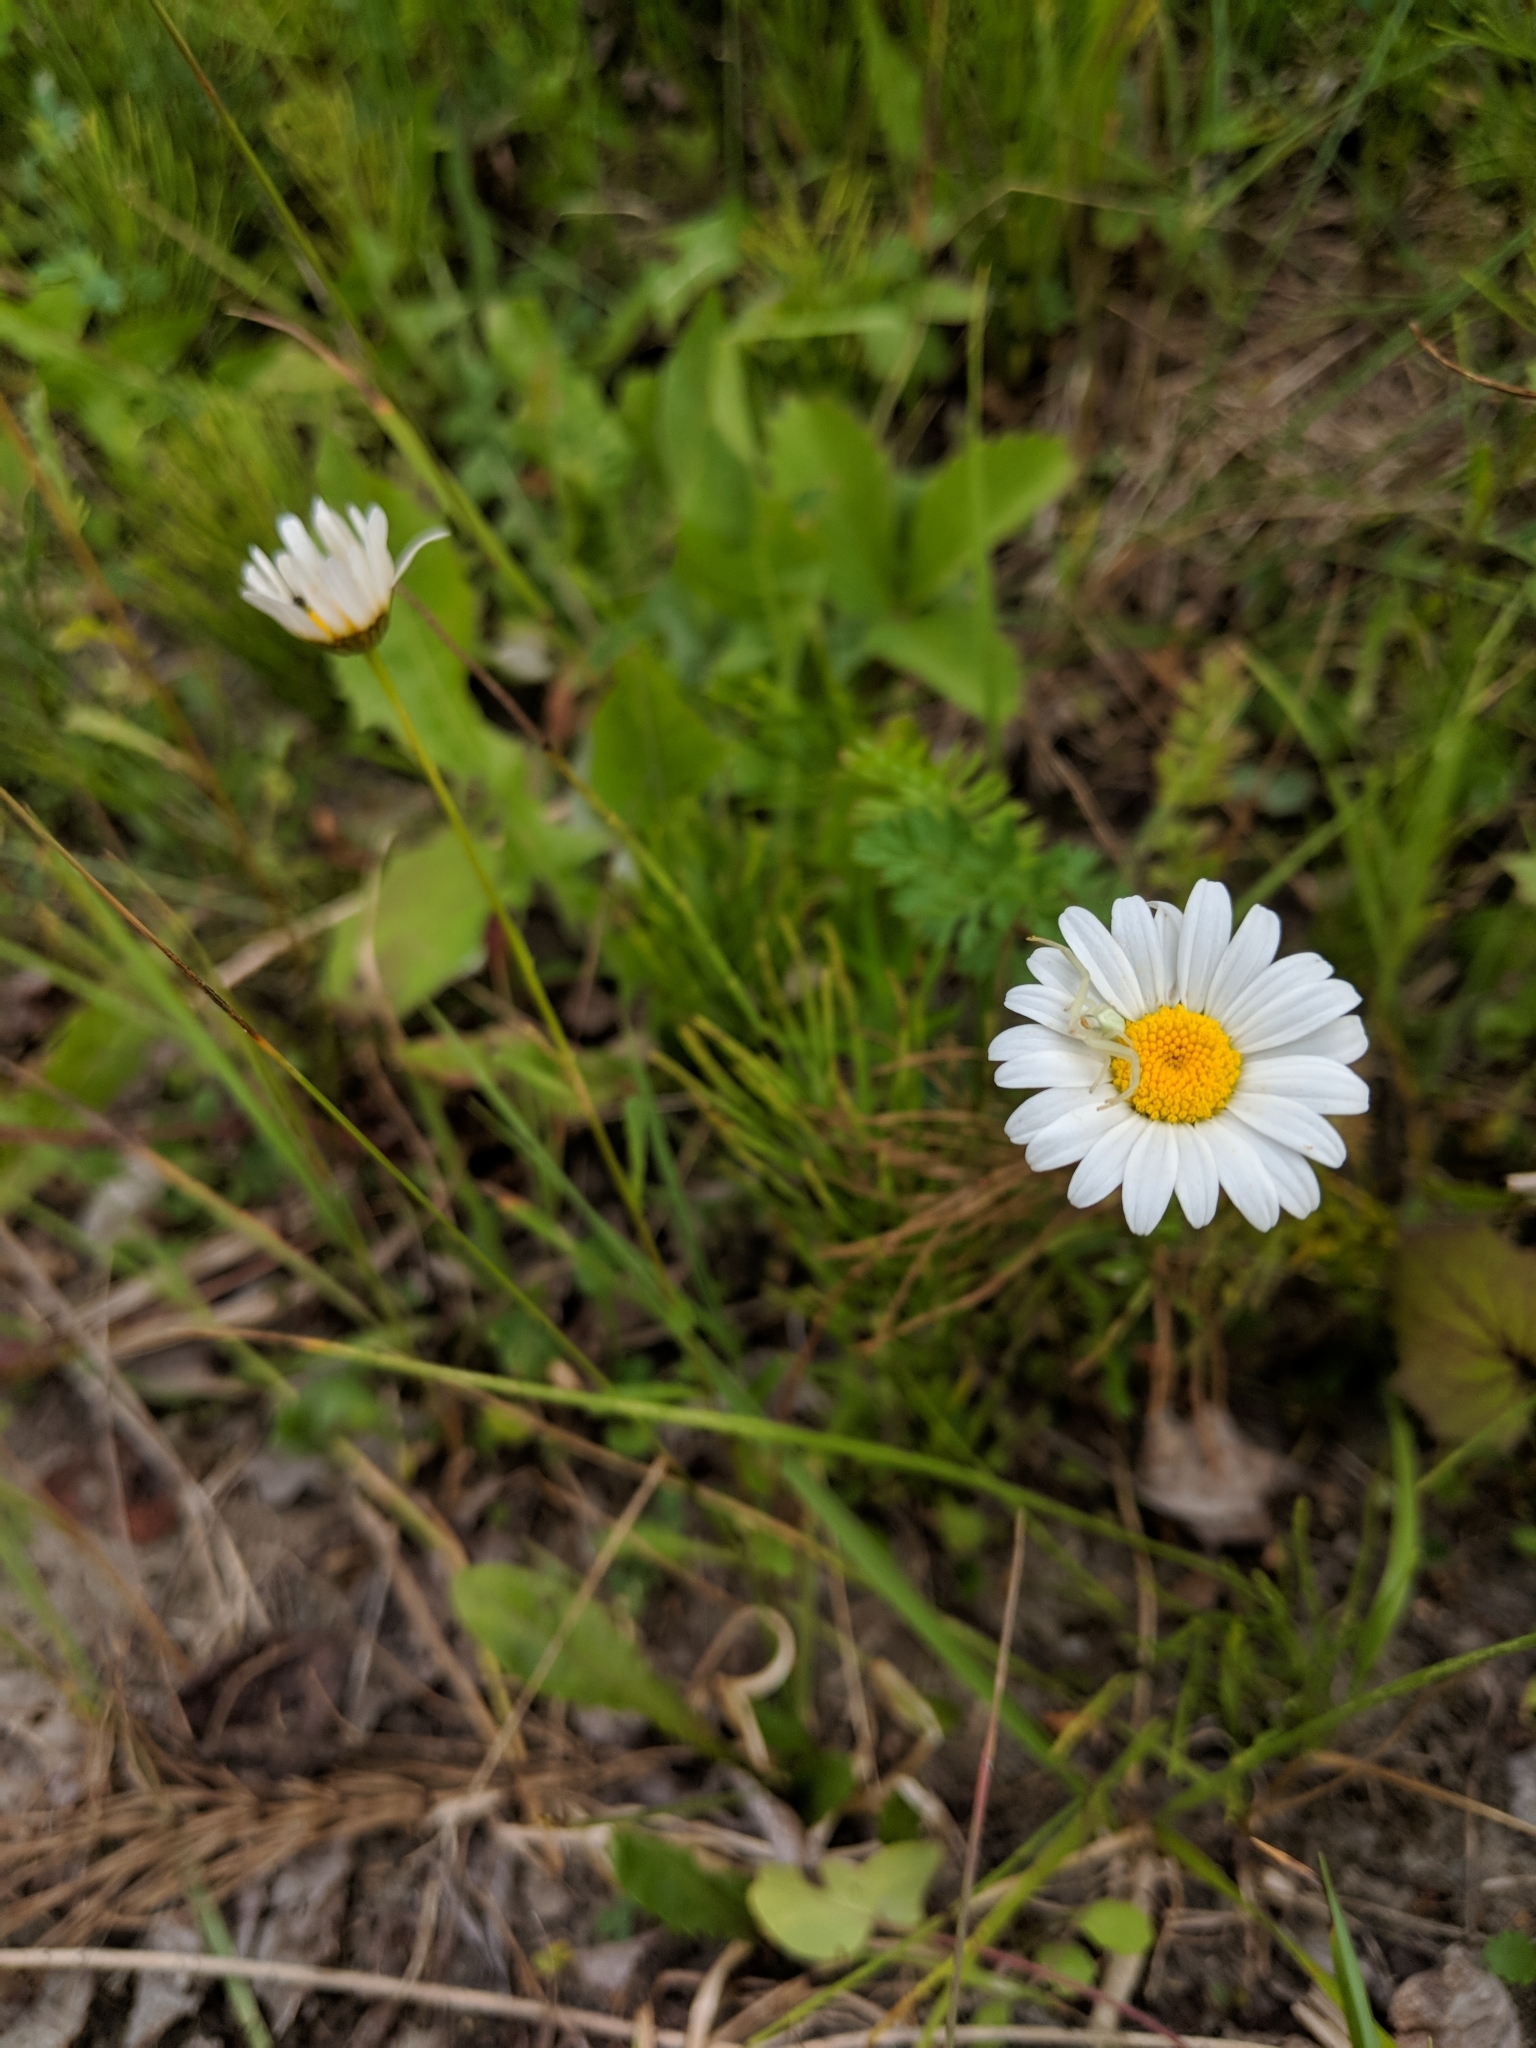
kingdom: Plantae
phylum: Tracheophyta
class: Magnoliopsida
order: Asterales
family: Asteraceae
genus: Leucanthemum
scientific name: Leucanthemum vulgare
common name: Oxeye daisy
